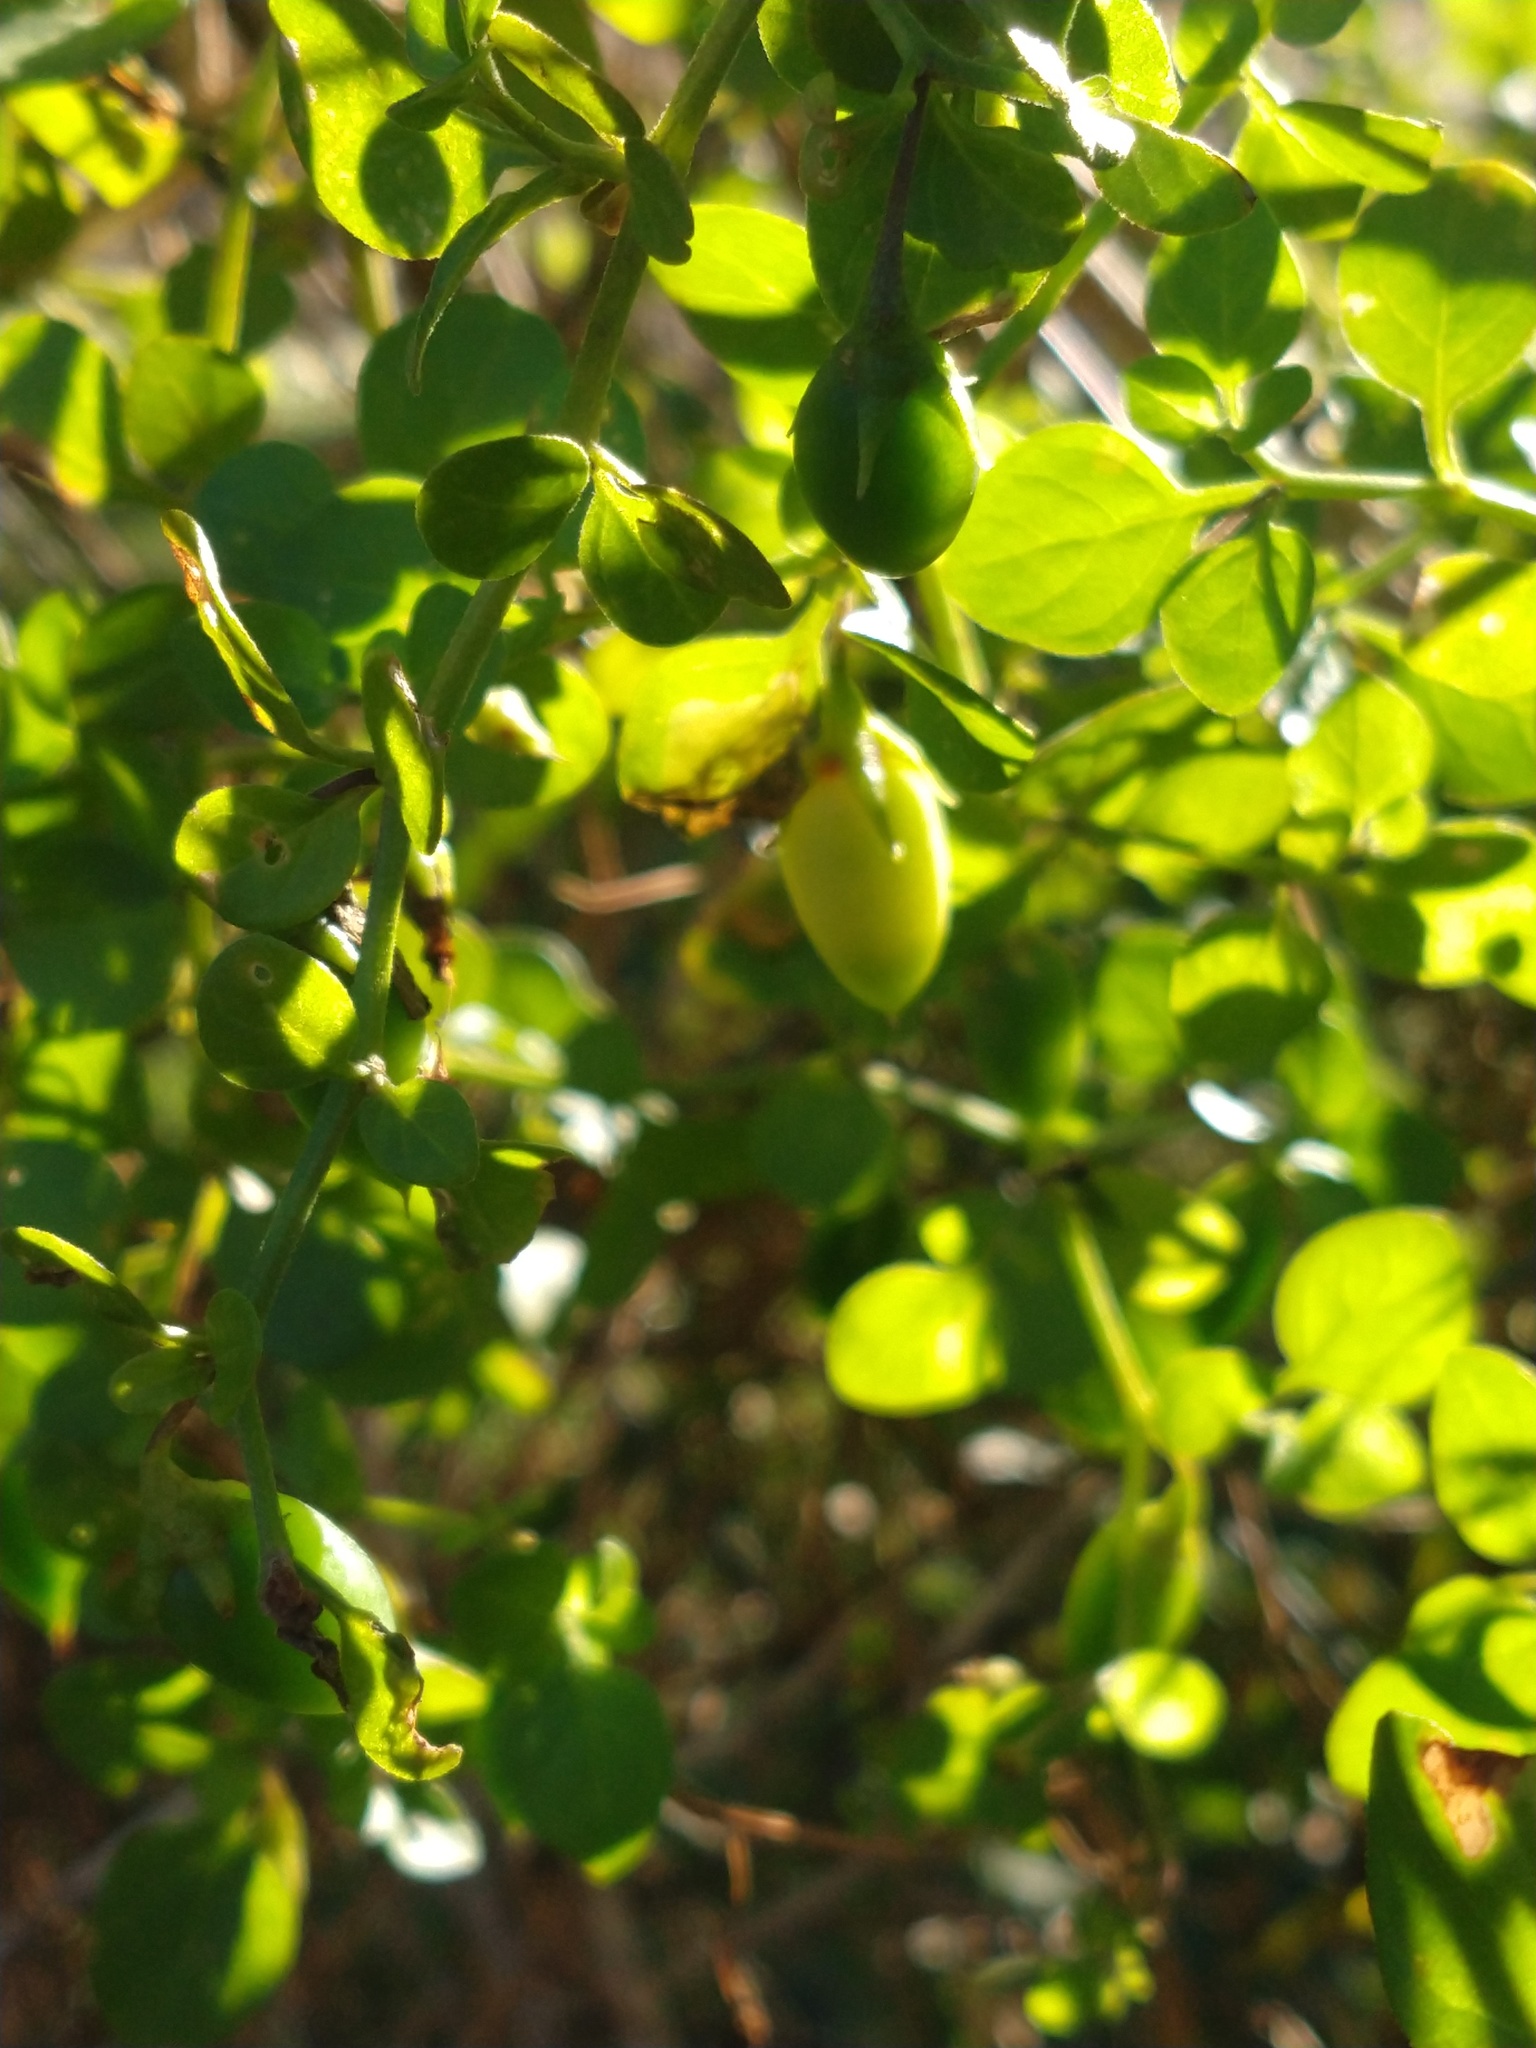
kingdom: Plantae
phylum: Tracheophyta
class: Magnoliopsida
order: Solanales
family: Solanaceae
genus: Salpichroa
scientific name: Salpichroa origanifolia
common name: Lily-of-the-valley-vine
